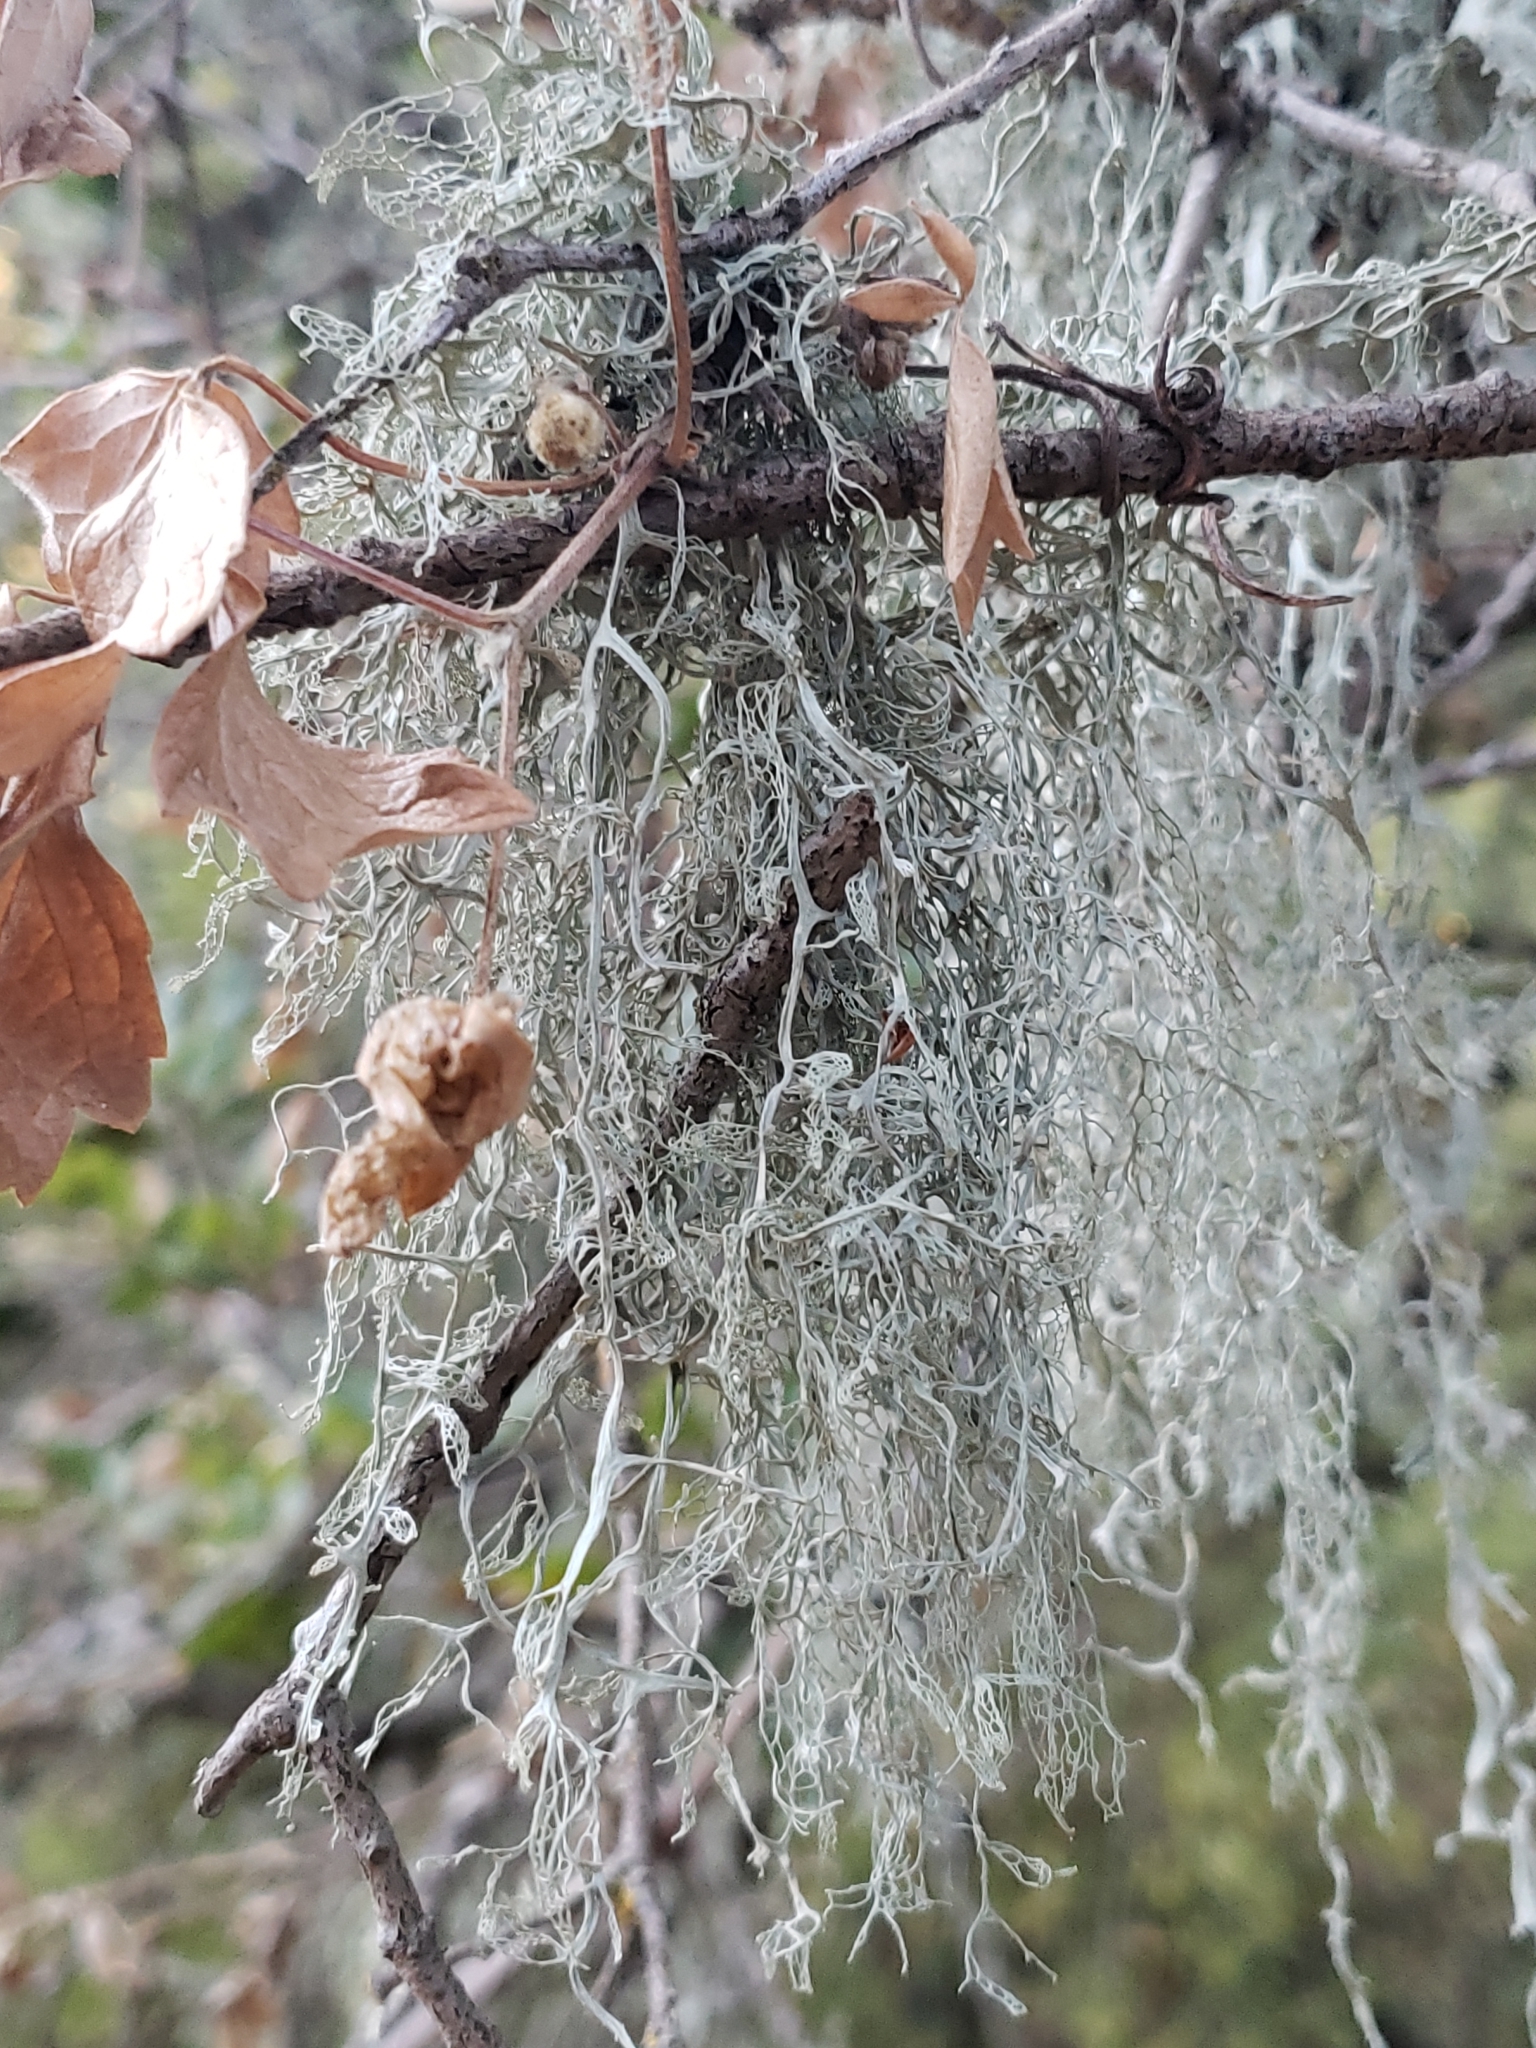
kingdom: Fungi
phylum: Ascomycota
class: Lecanoromycetes
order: Lecanorales
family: Ramalinaceae
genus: Ramalina
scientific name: Ramalina menziesii
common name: Lace lichen
